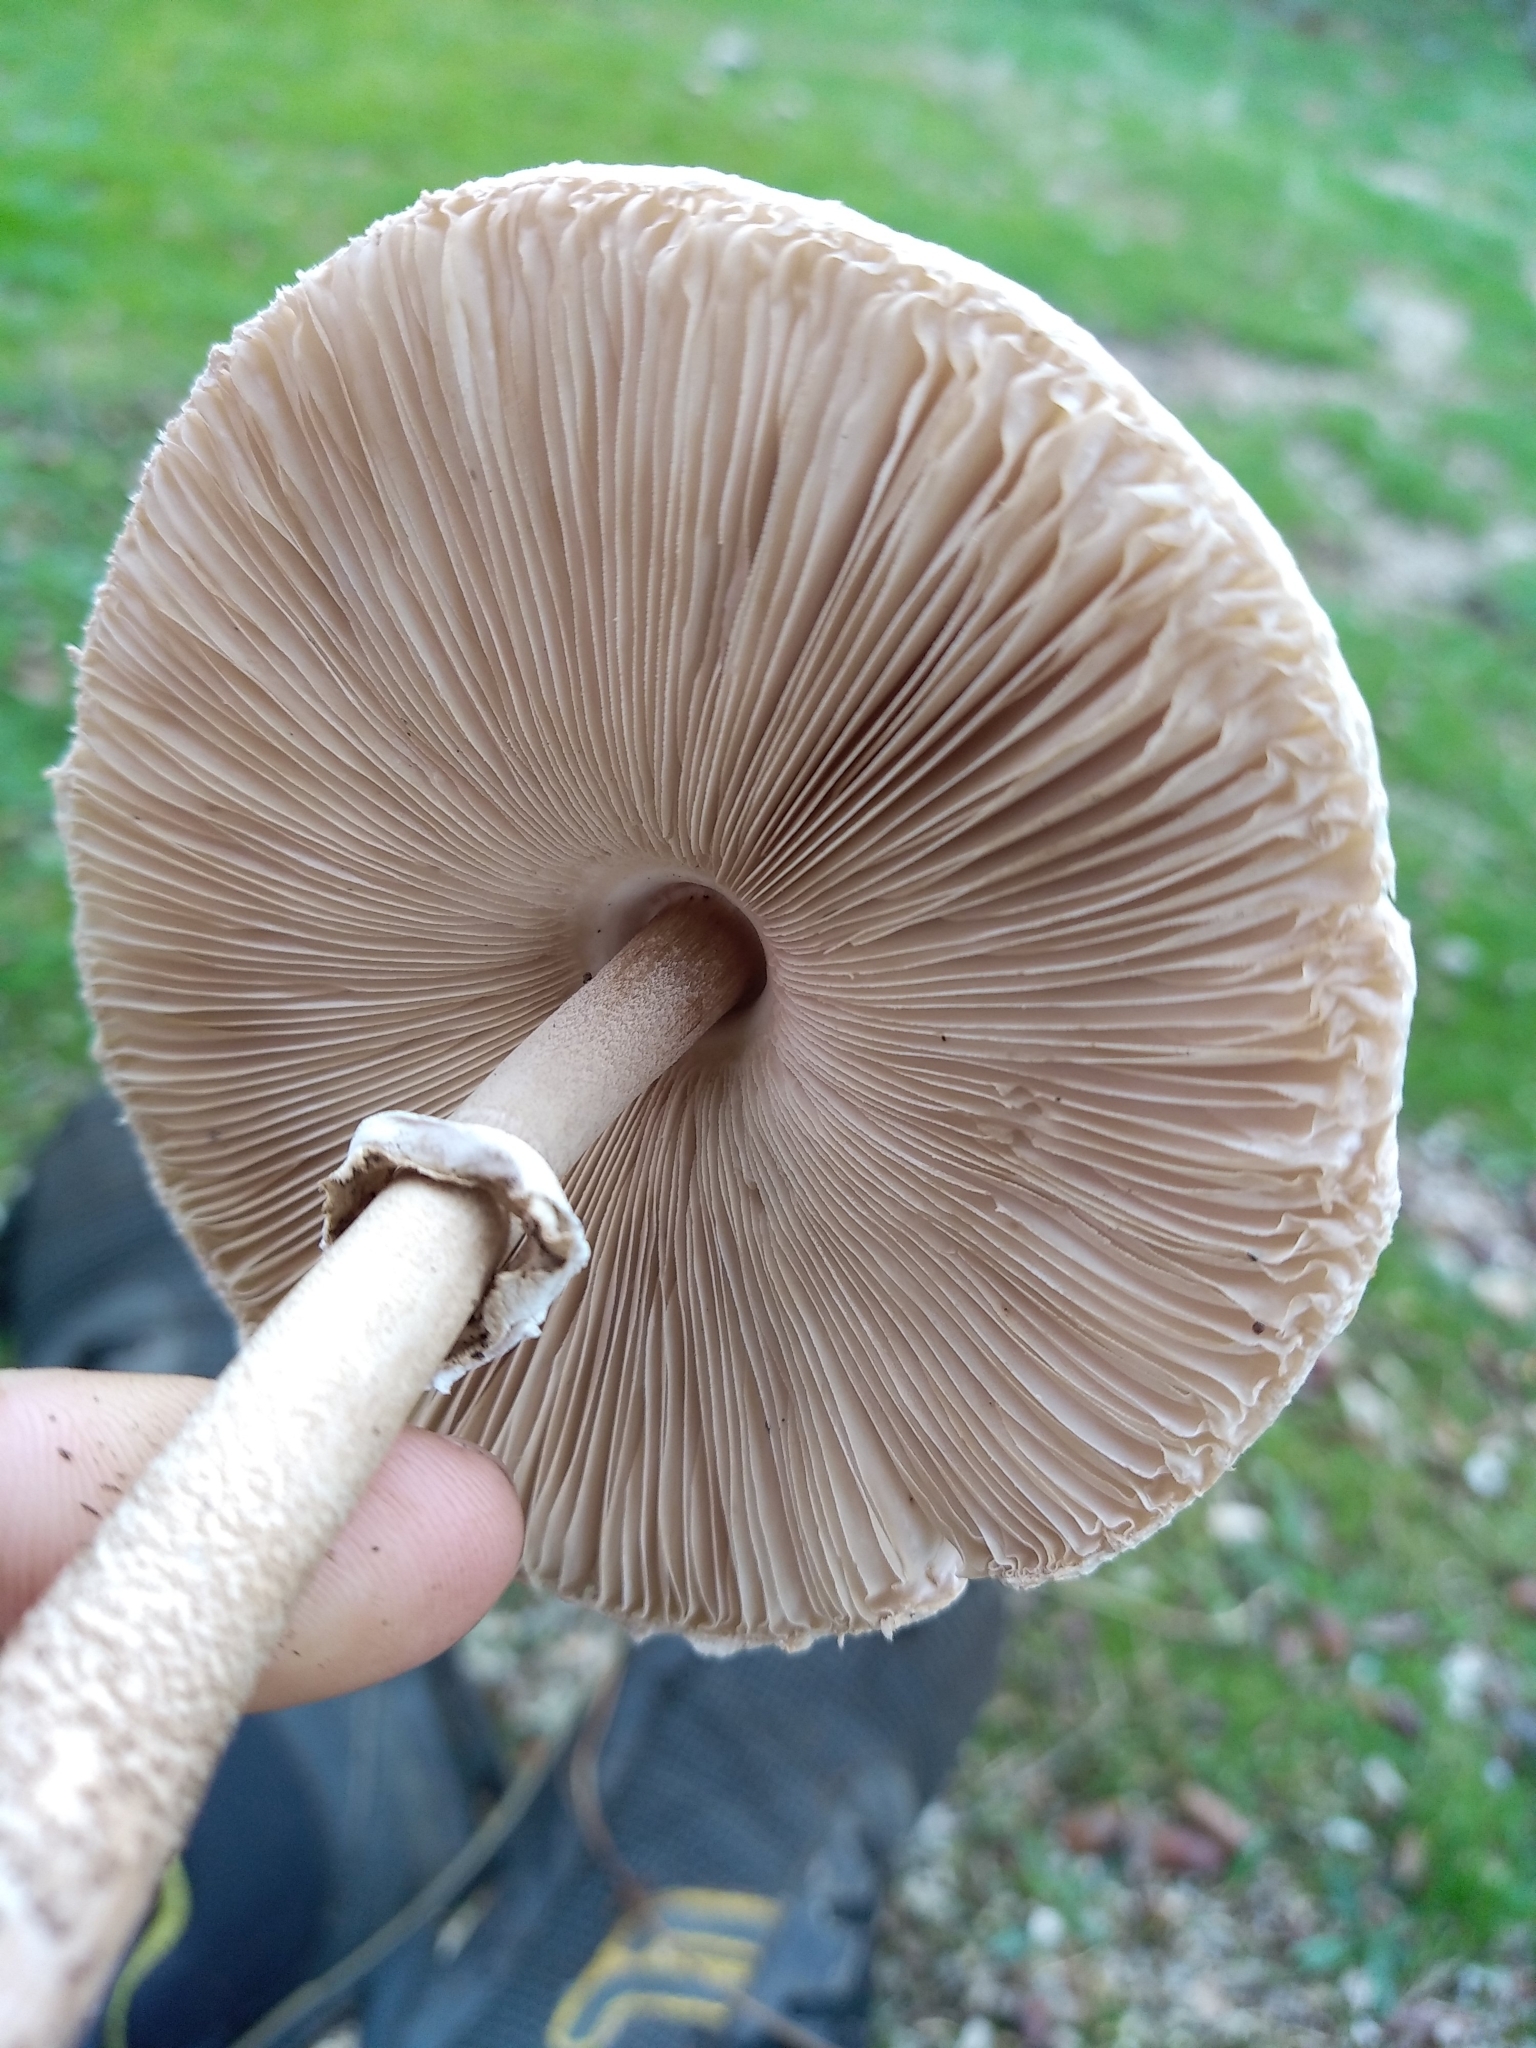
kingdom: Fungi
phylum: Basidiomycota
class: Agaricomycetes
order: Agaricales
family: Agaricaceae
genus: Macrolepiota
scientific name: Macrolepiota procera
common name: Parasol
